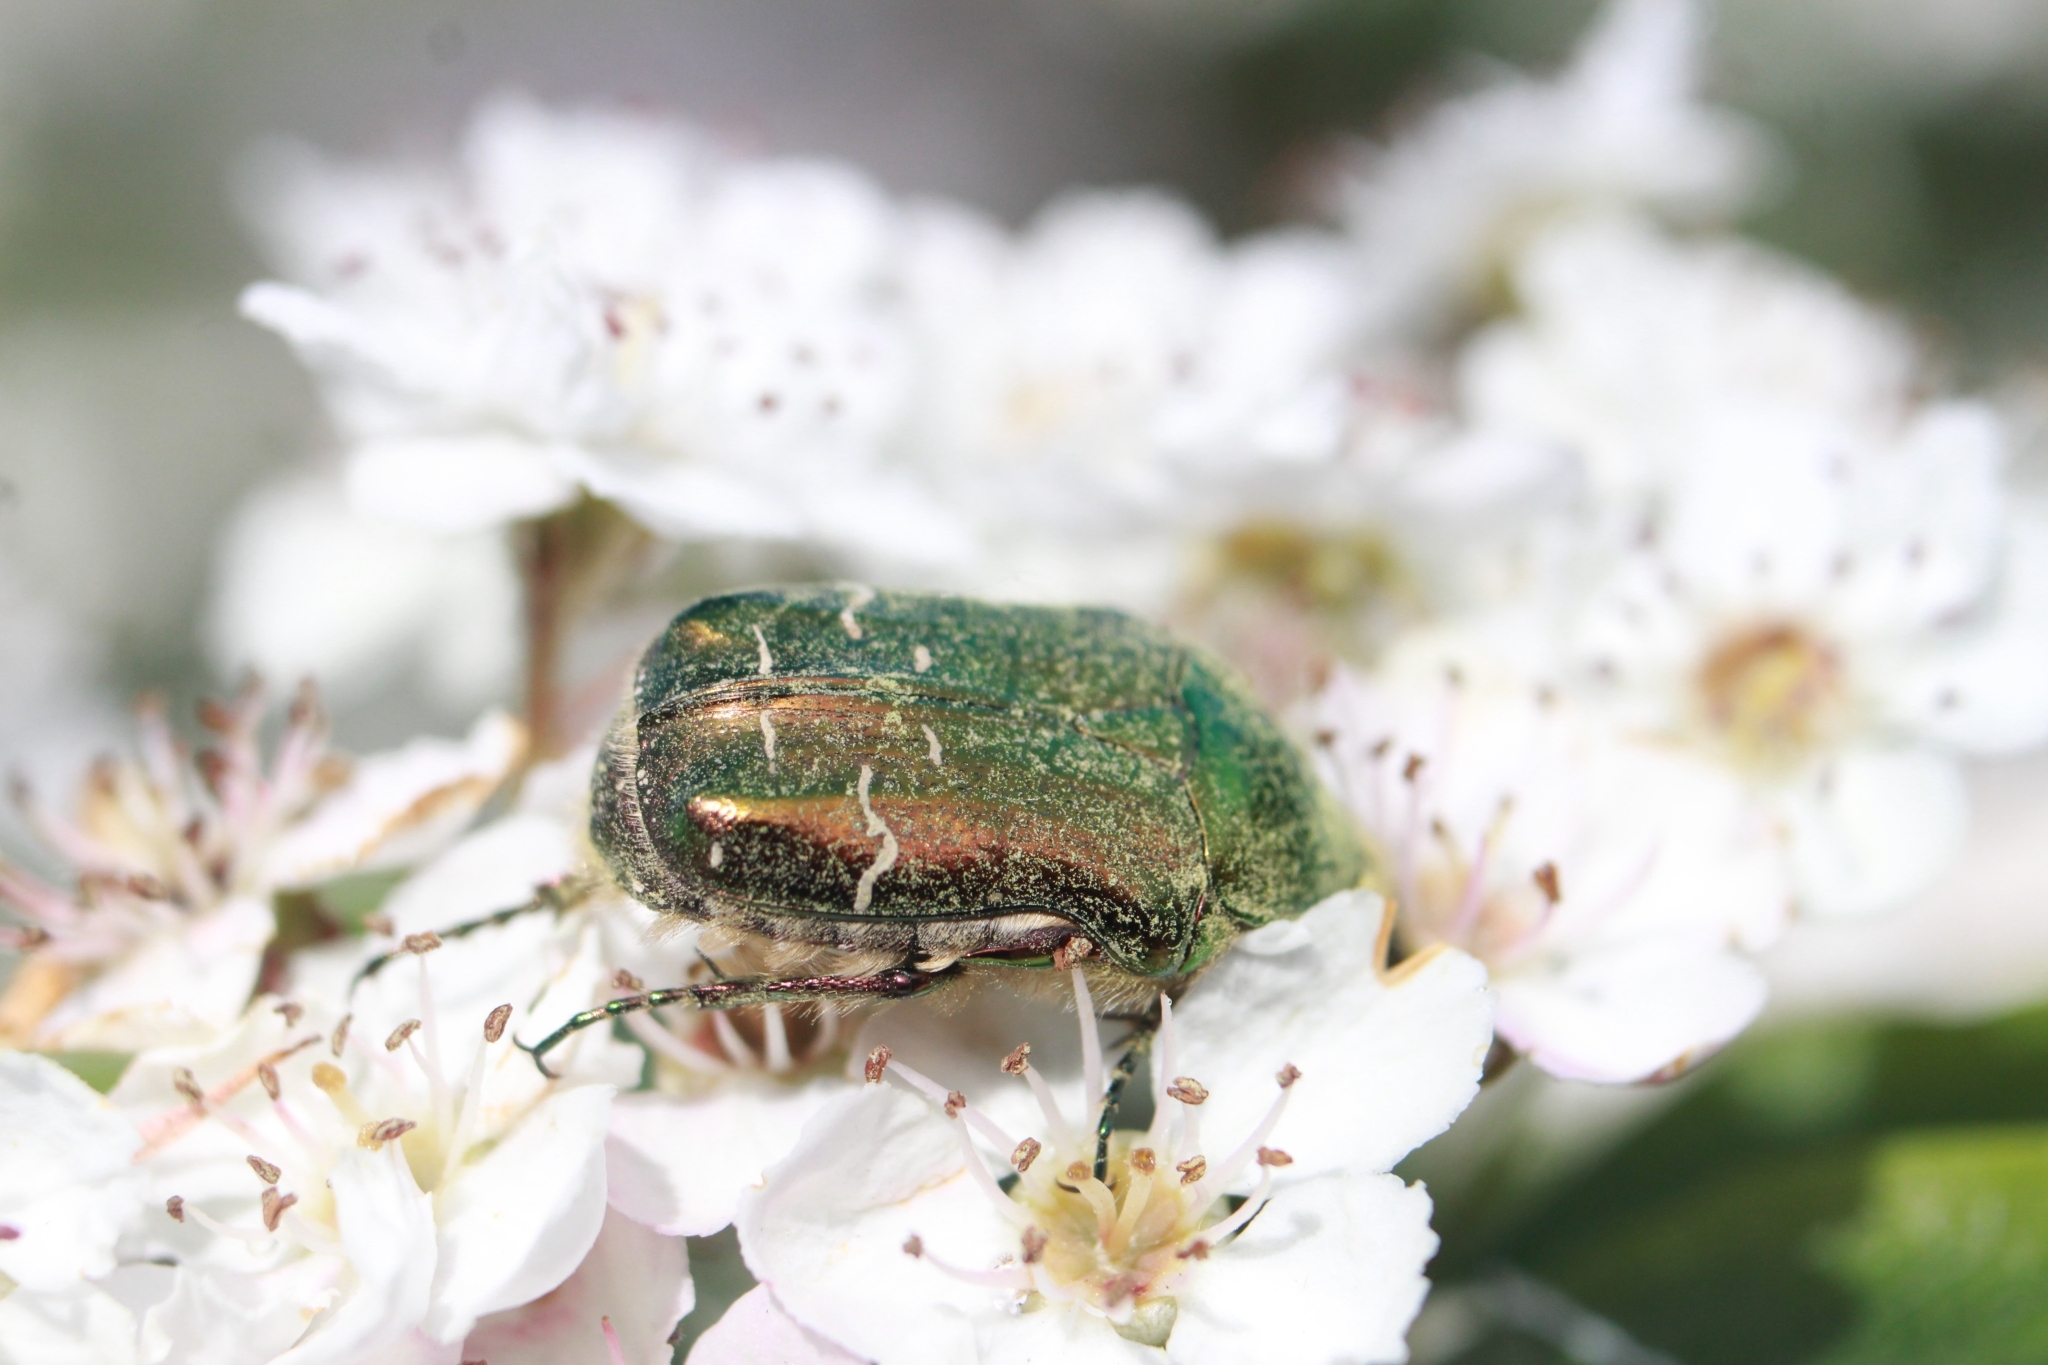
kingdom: Animalia
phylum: Arthropoda
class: Insecta
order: Coleoptera
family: Scarabaeidae
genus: Cetonia
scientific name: Cetonia aurata
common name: Rose chafer
